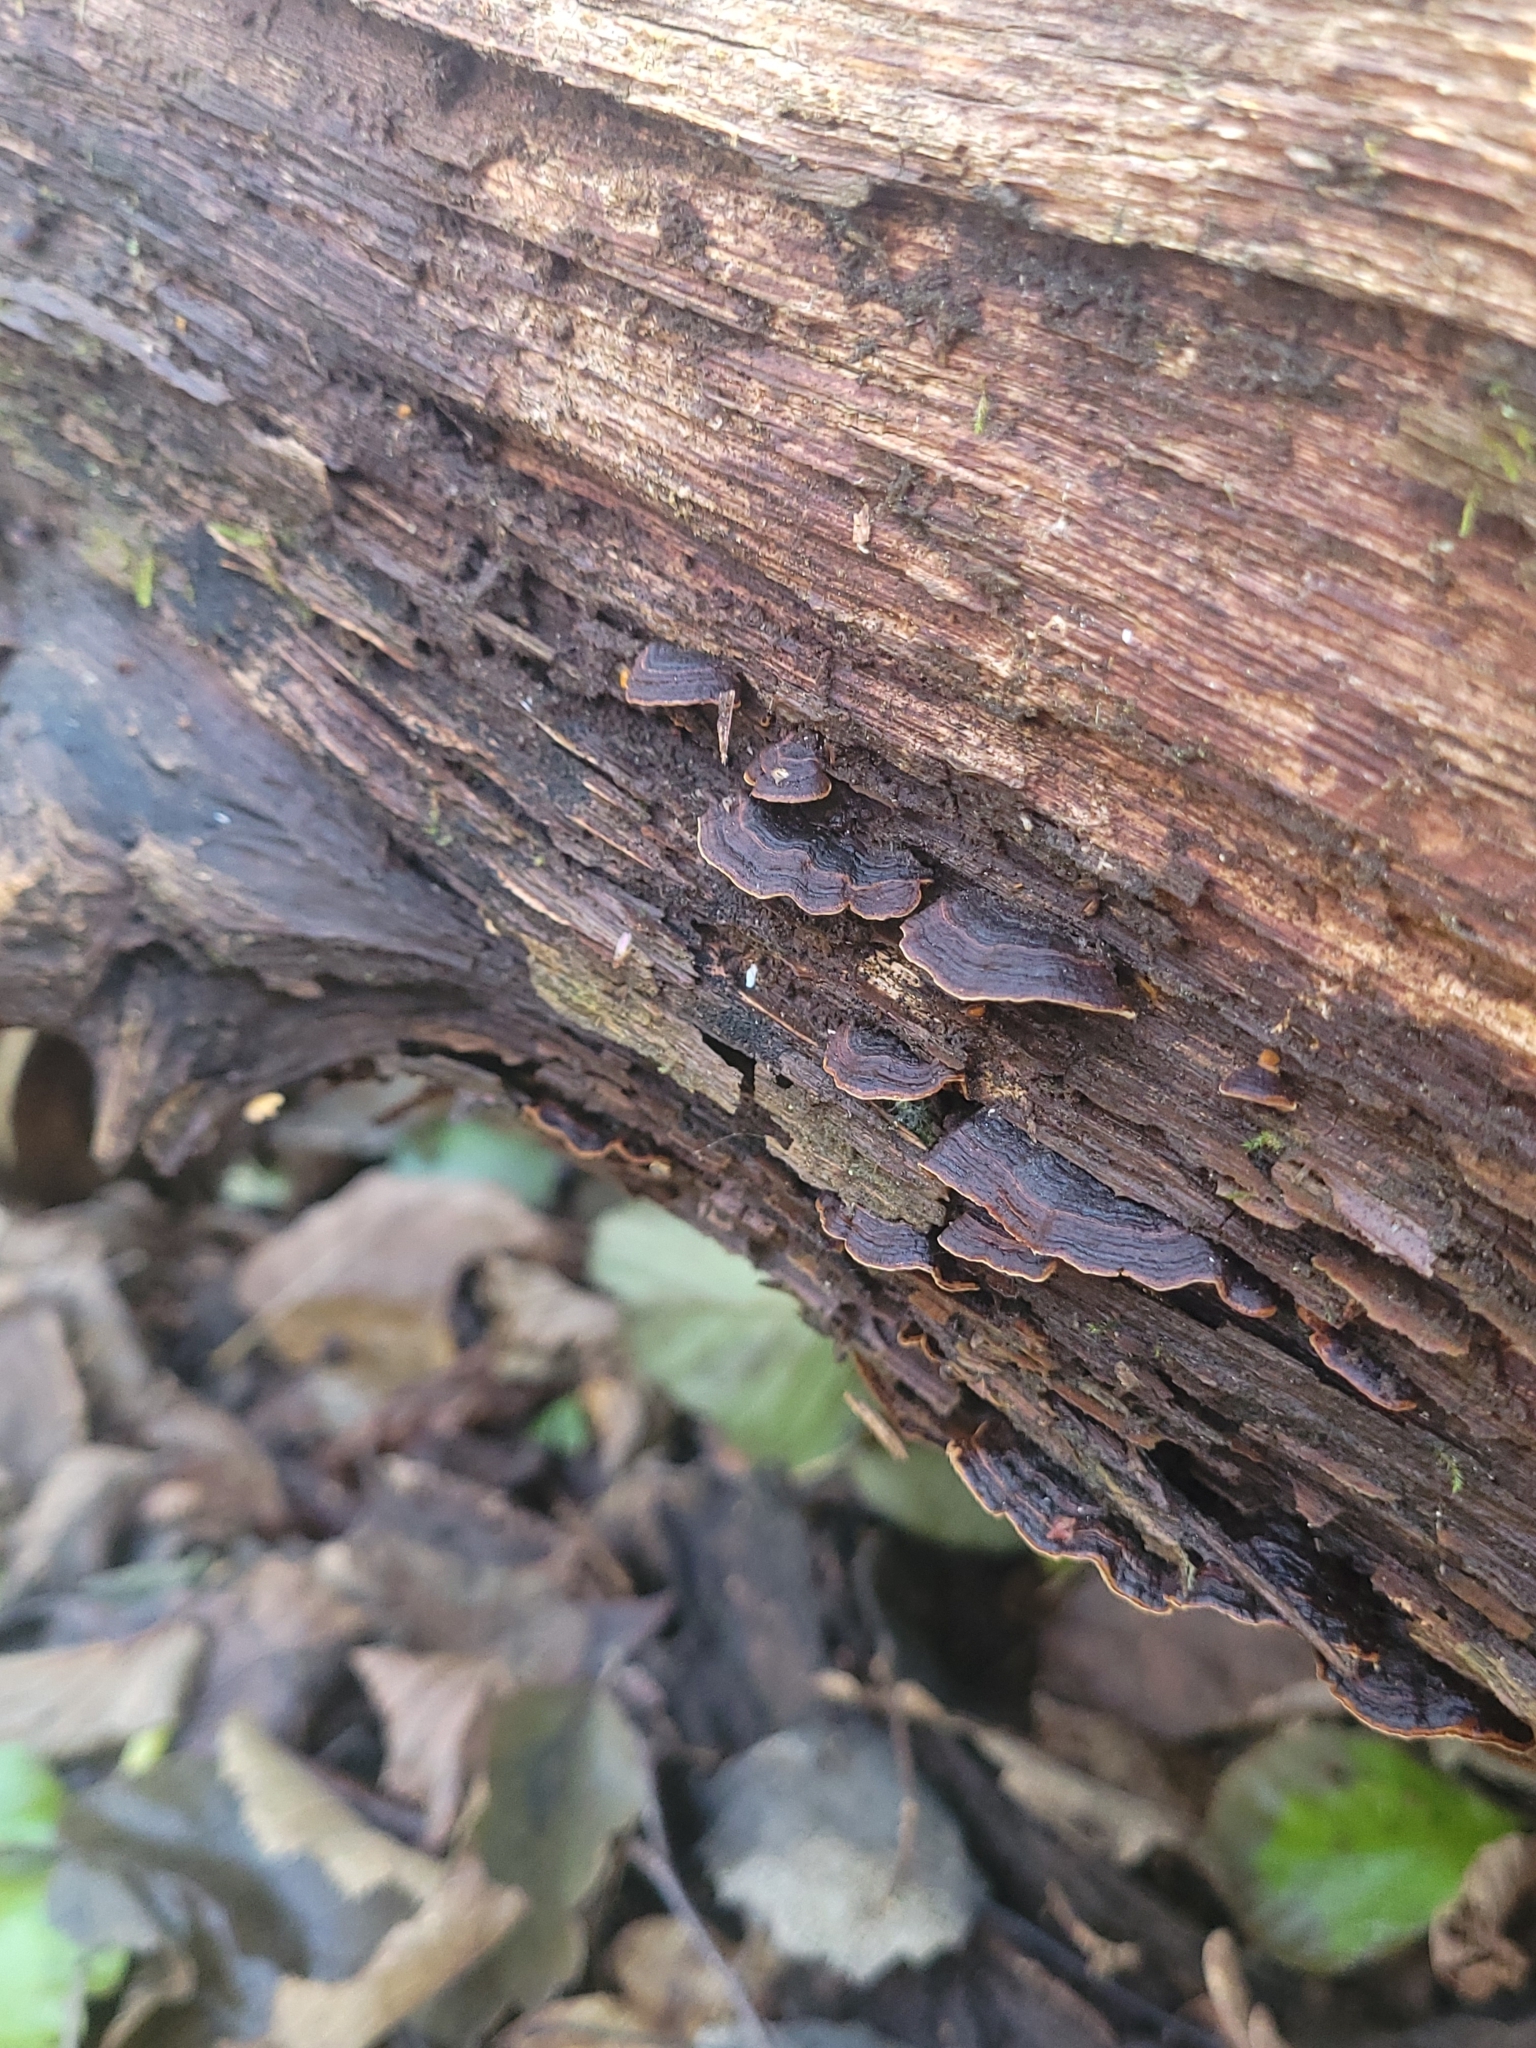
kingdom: Fungi
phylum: Basidiomycota
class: Agaricomycetes
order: Hymenochaetales
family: Hymenochaetaceae
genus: Hymenochaete
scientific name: Hymenochaete rubiginosa
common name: Oak curtain crust
